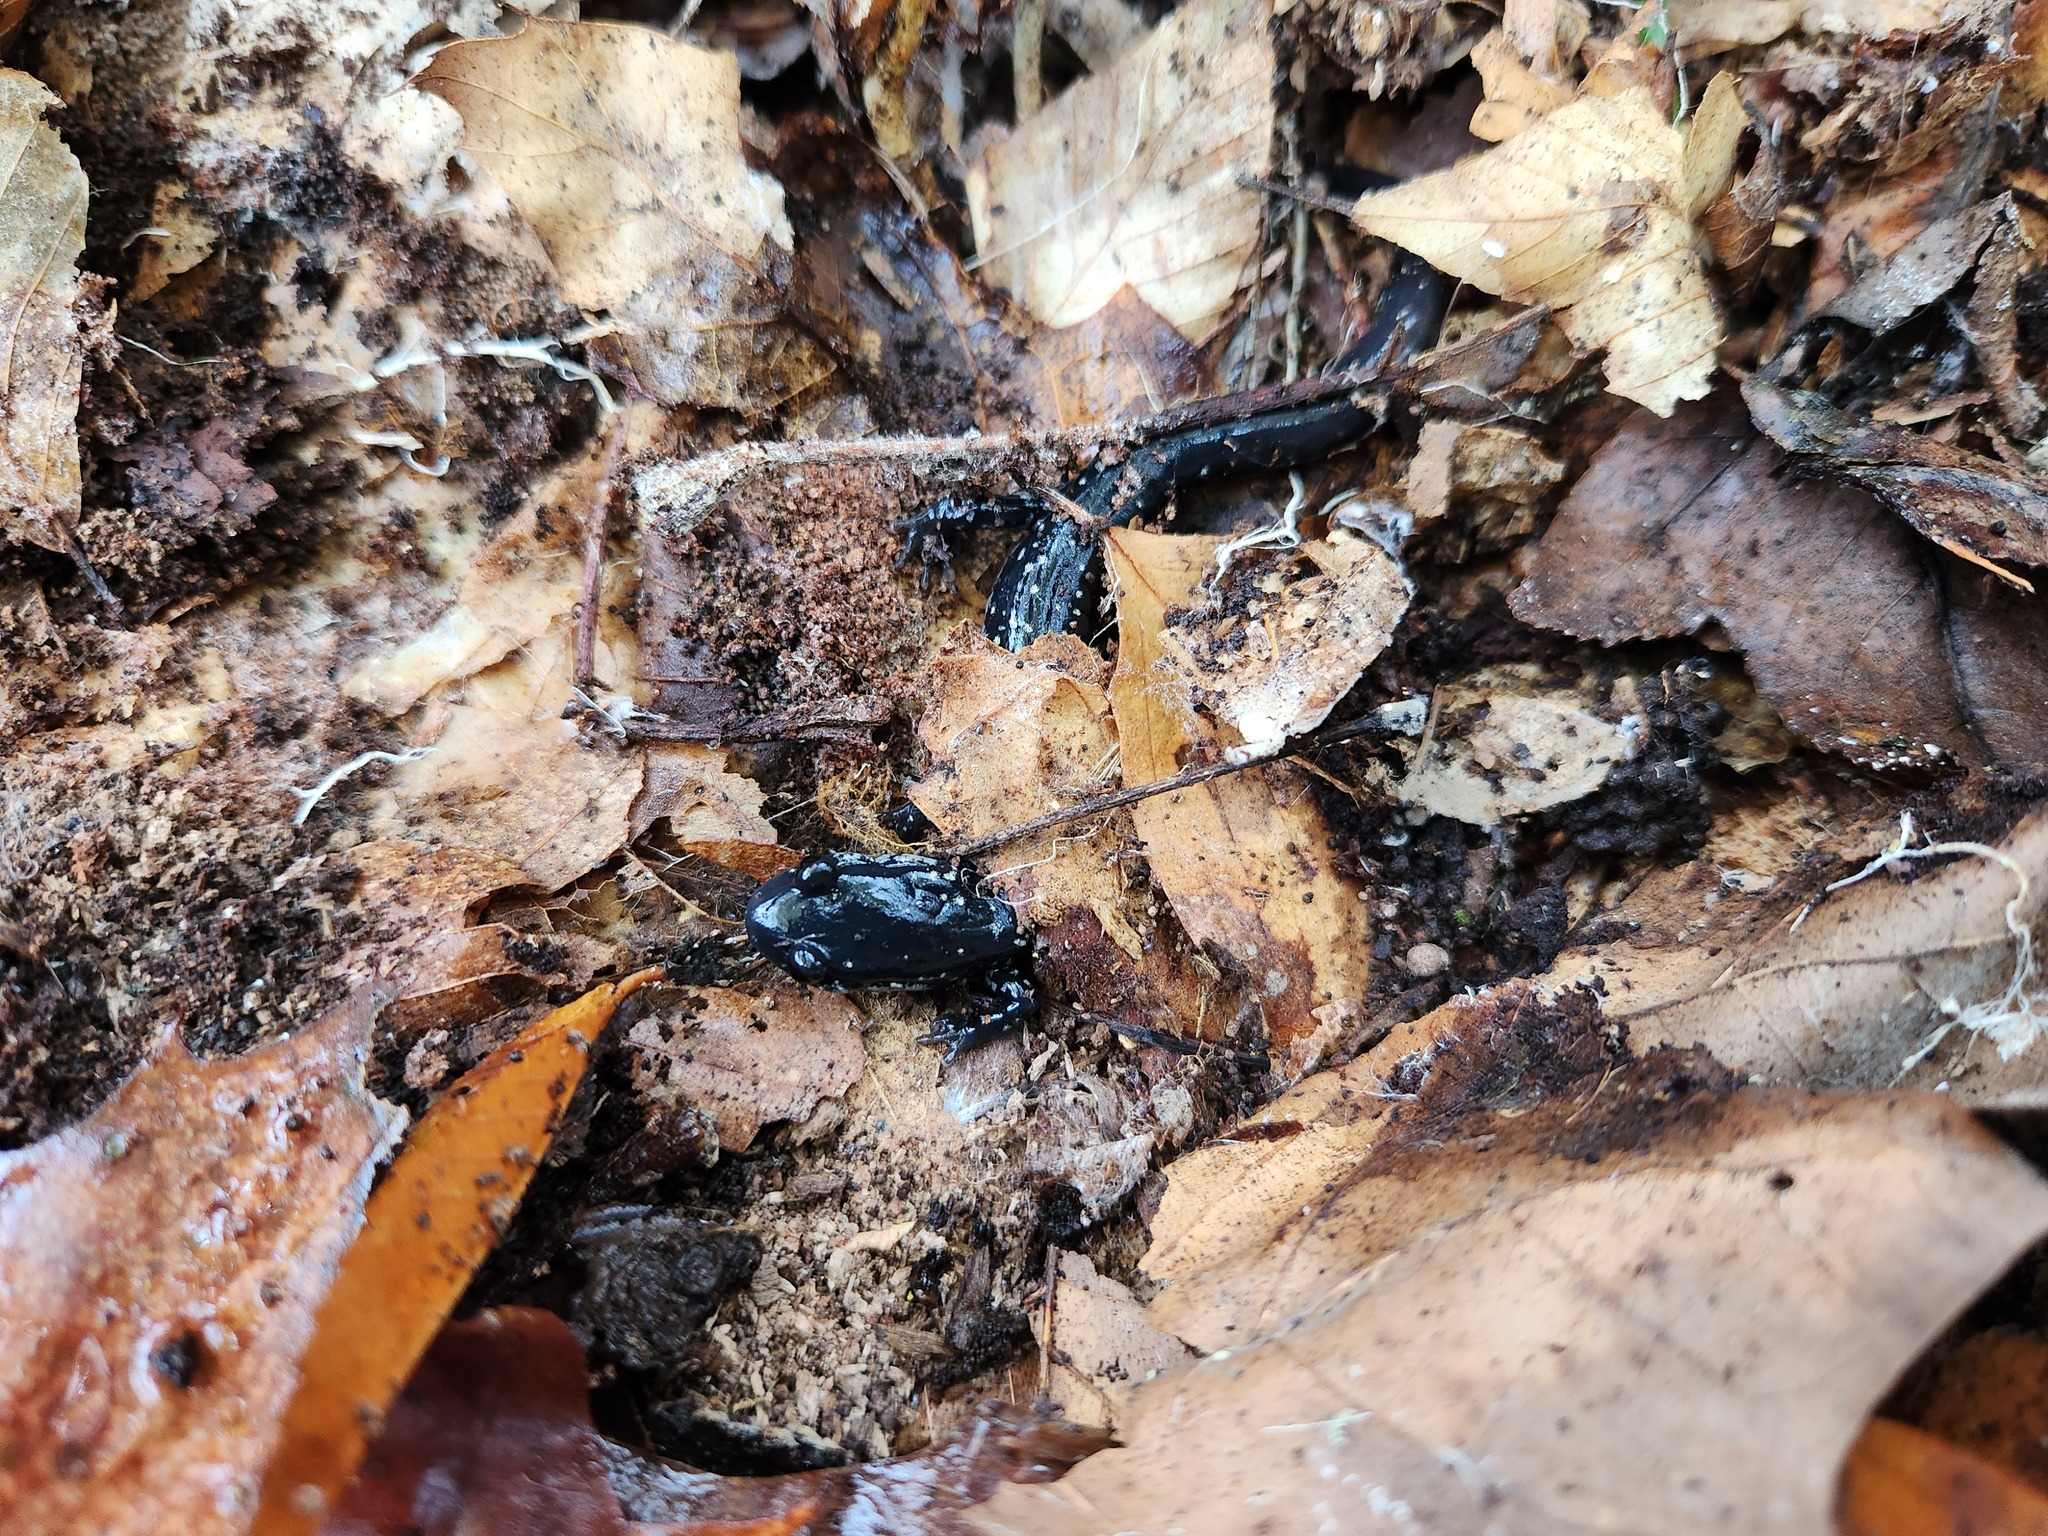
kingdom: Animalia
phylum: Chordata
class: Amphibia
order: Caudata
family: Plethodontidae
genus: Plethodon
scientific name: Plethodon glutinosus
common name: Northern slimy salamander
